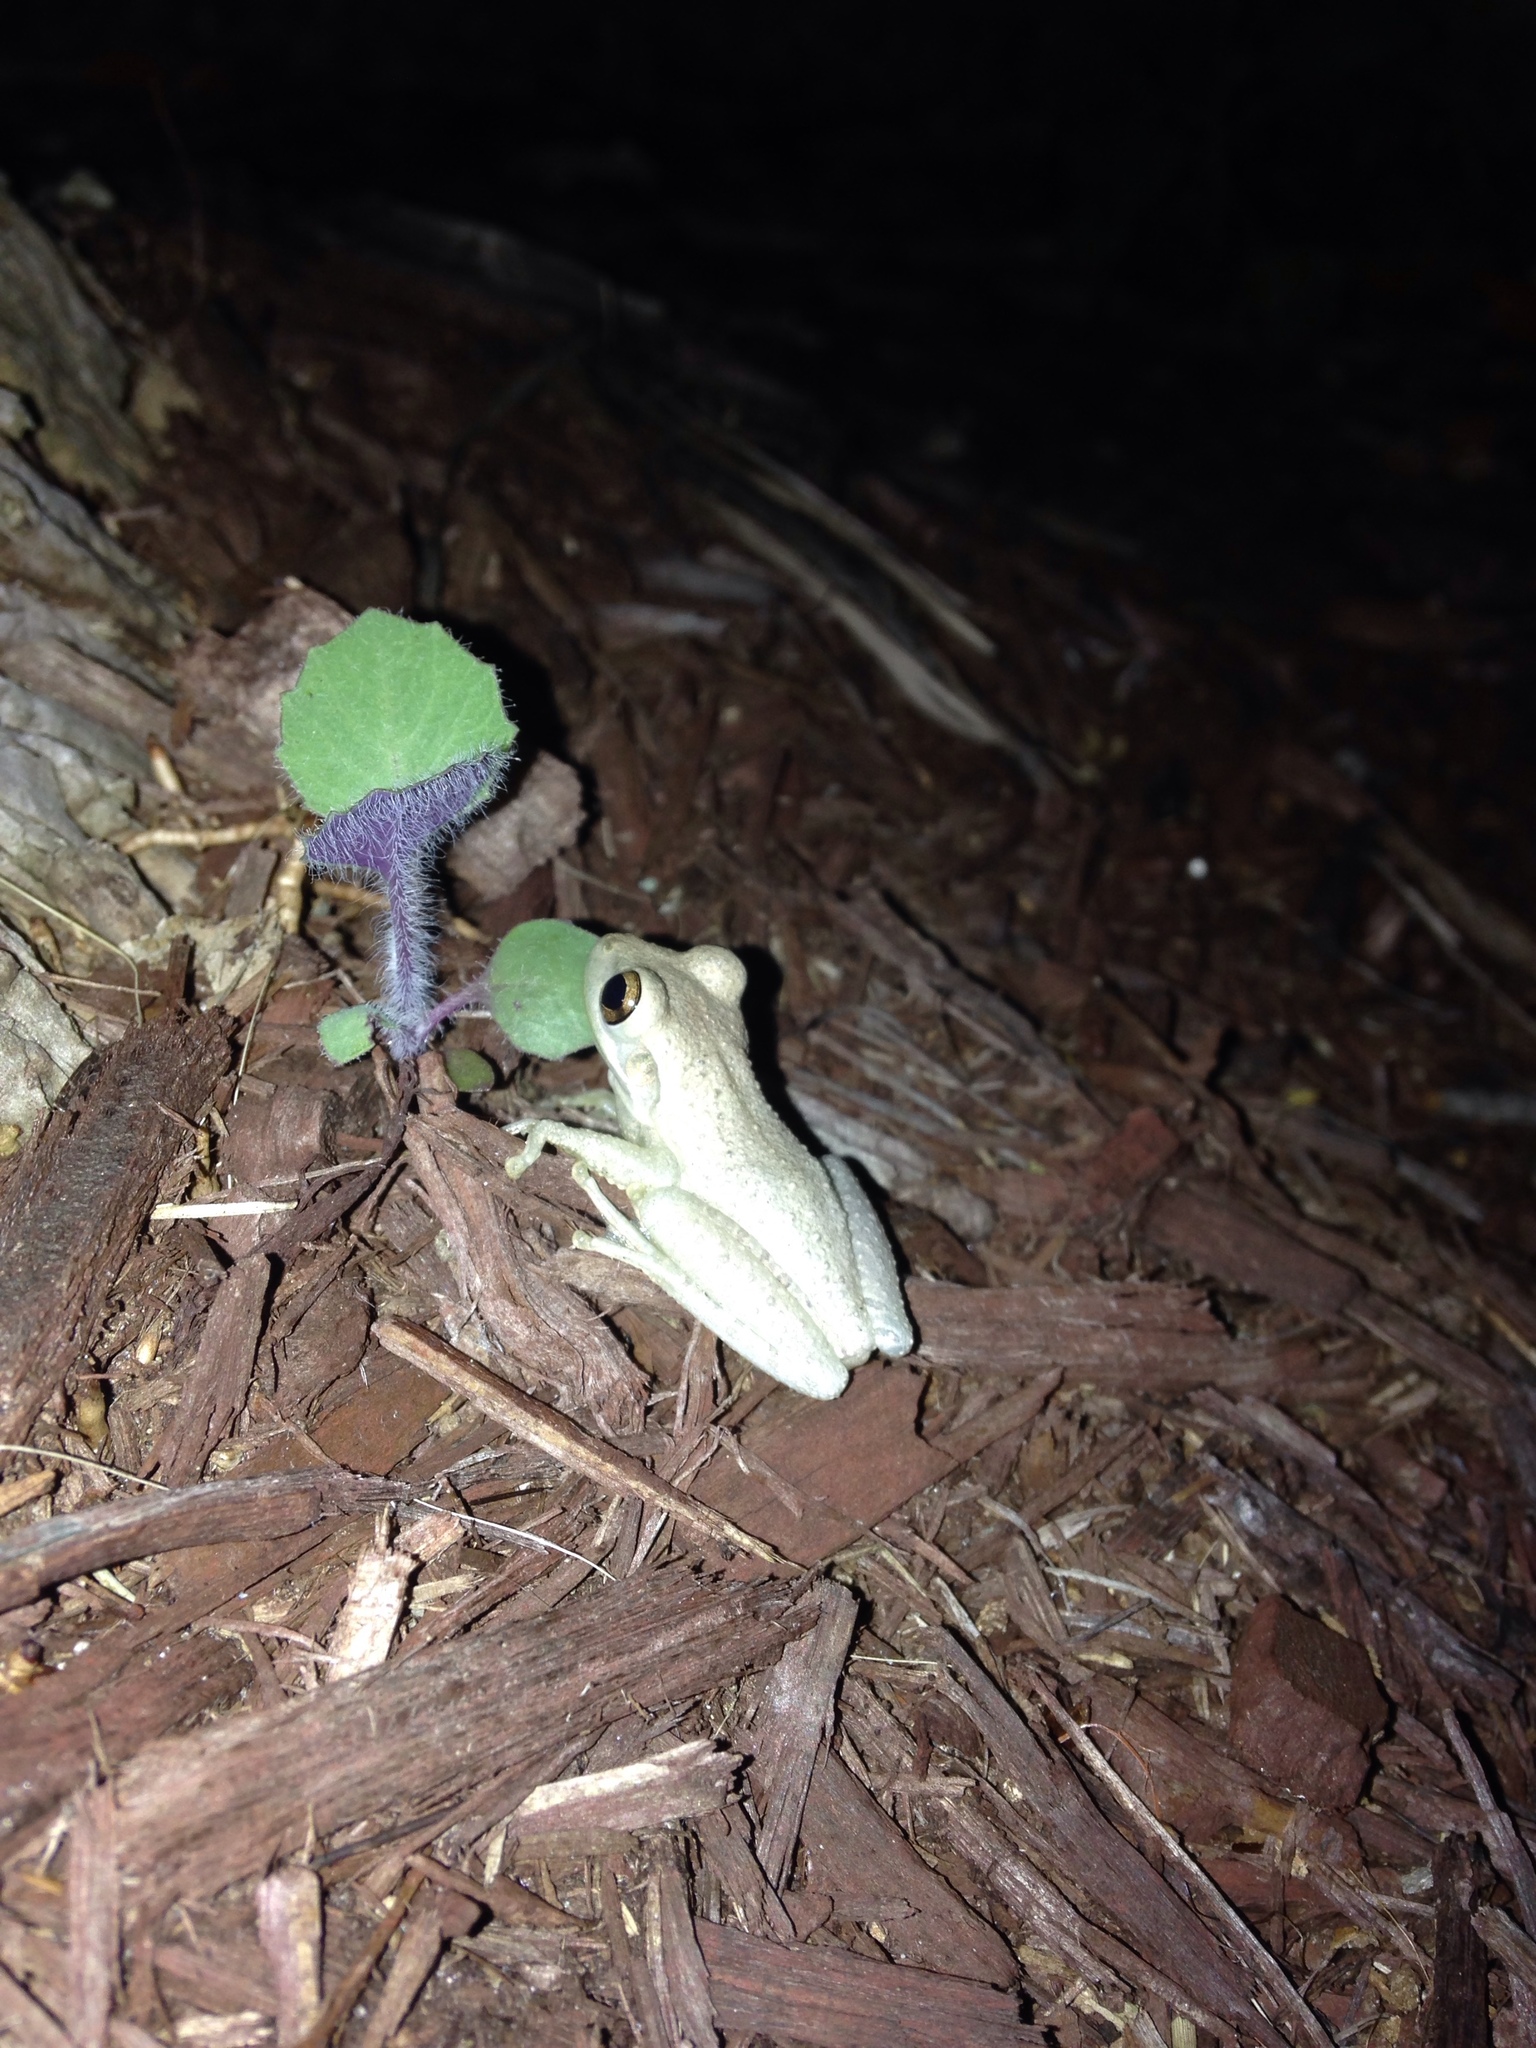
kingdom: Animalia
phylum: Chordata
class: Amphibia
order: Anura
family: Hylidae
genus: Osteopilus
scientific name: Osteopilus septentrionalis
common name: Cuban treefrog
